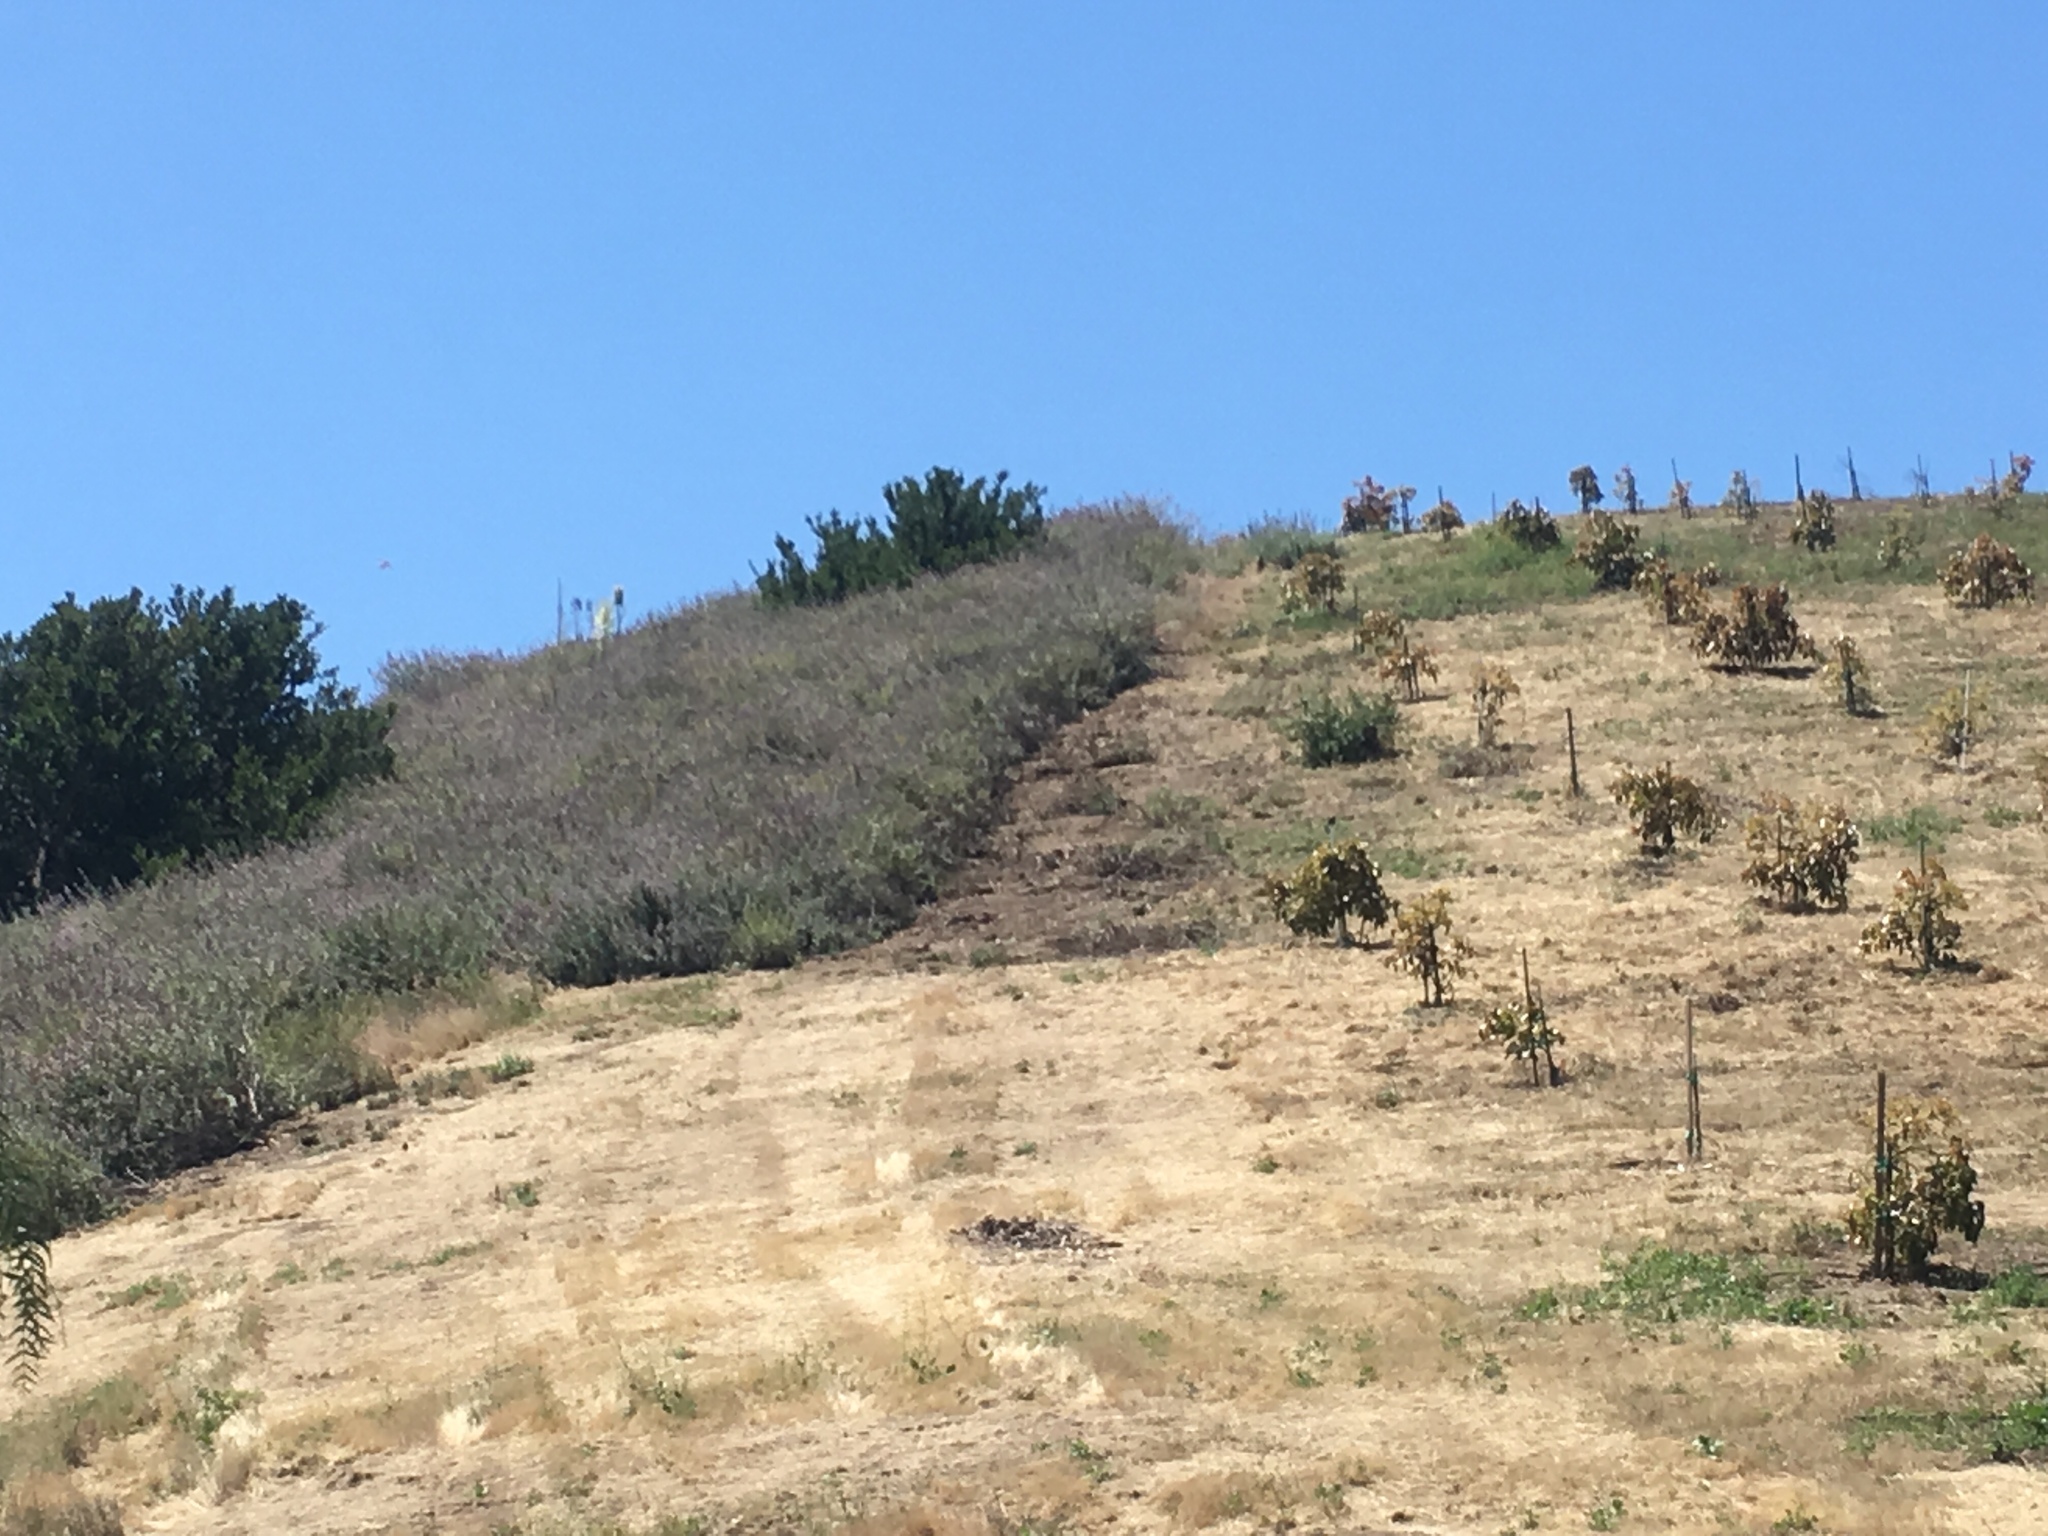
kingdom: Plantae
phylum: Tracheophyta
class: Magnoliopsida
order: Lamiales
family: Lamiaceae
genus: Salvia
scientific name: Salvia leucophylla
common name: Purple sage
